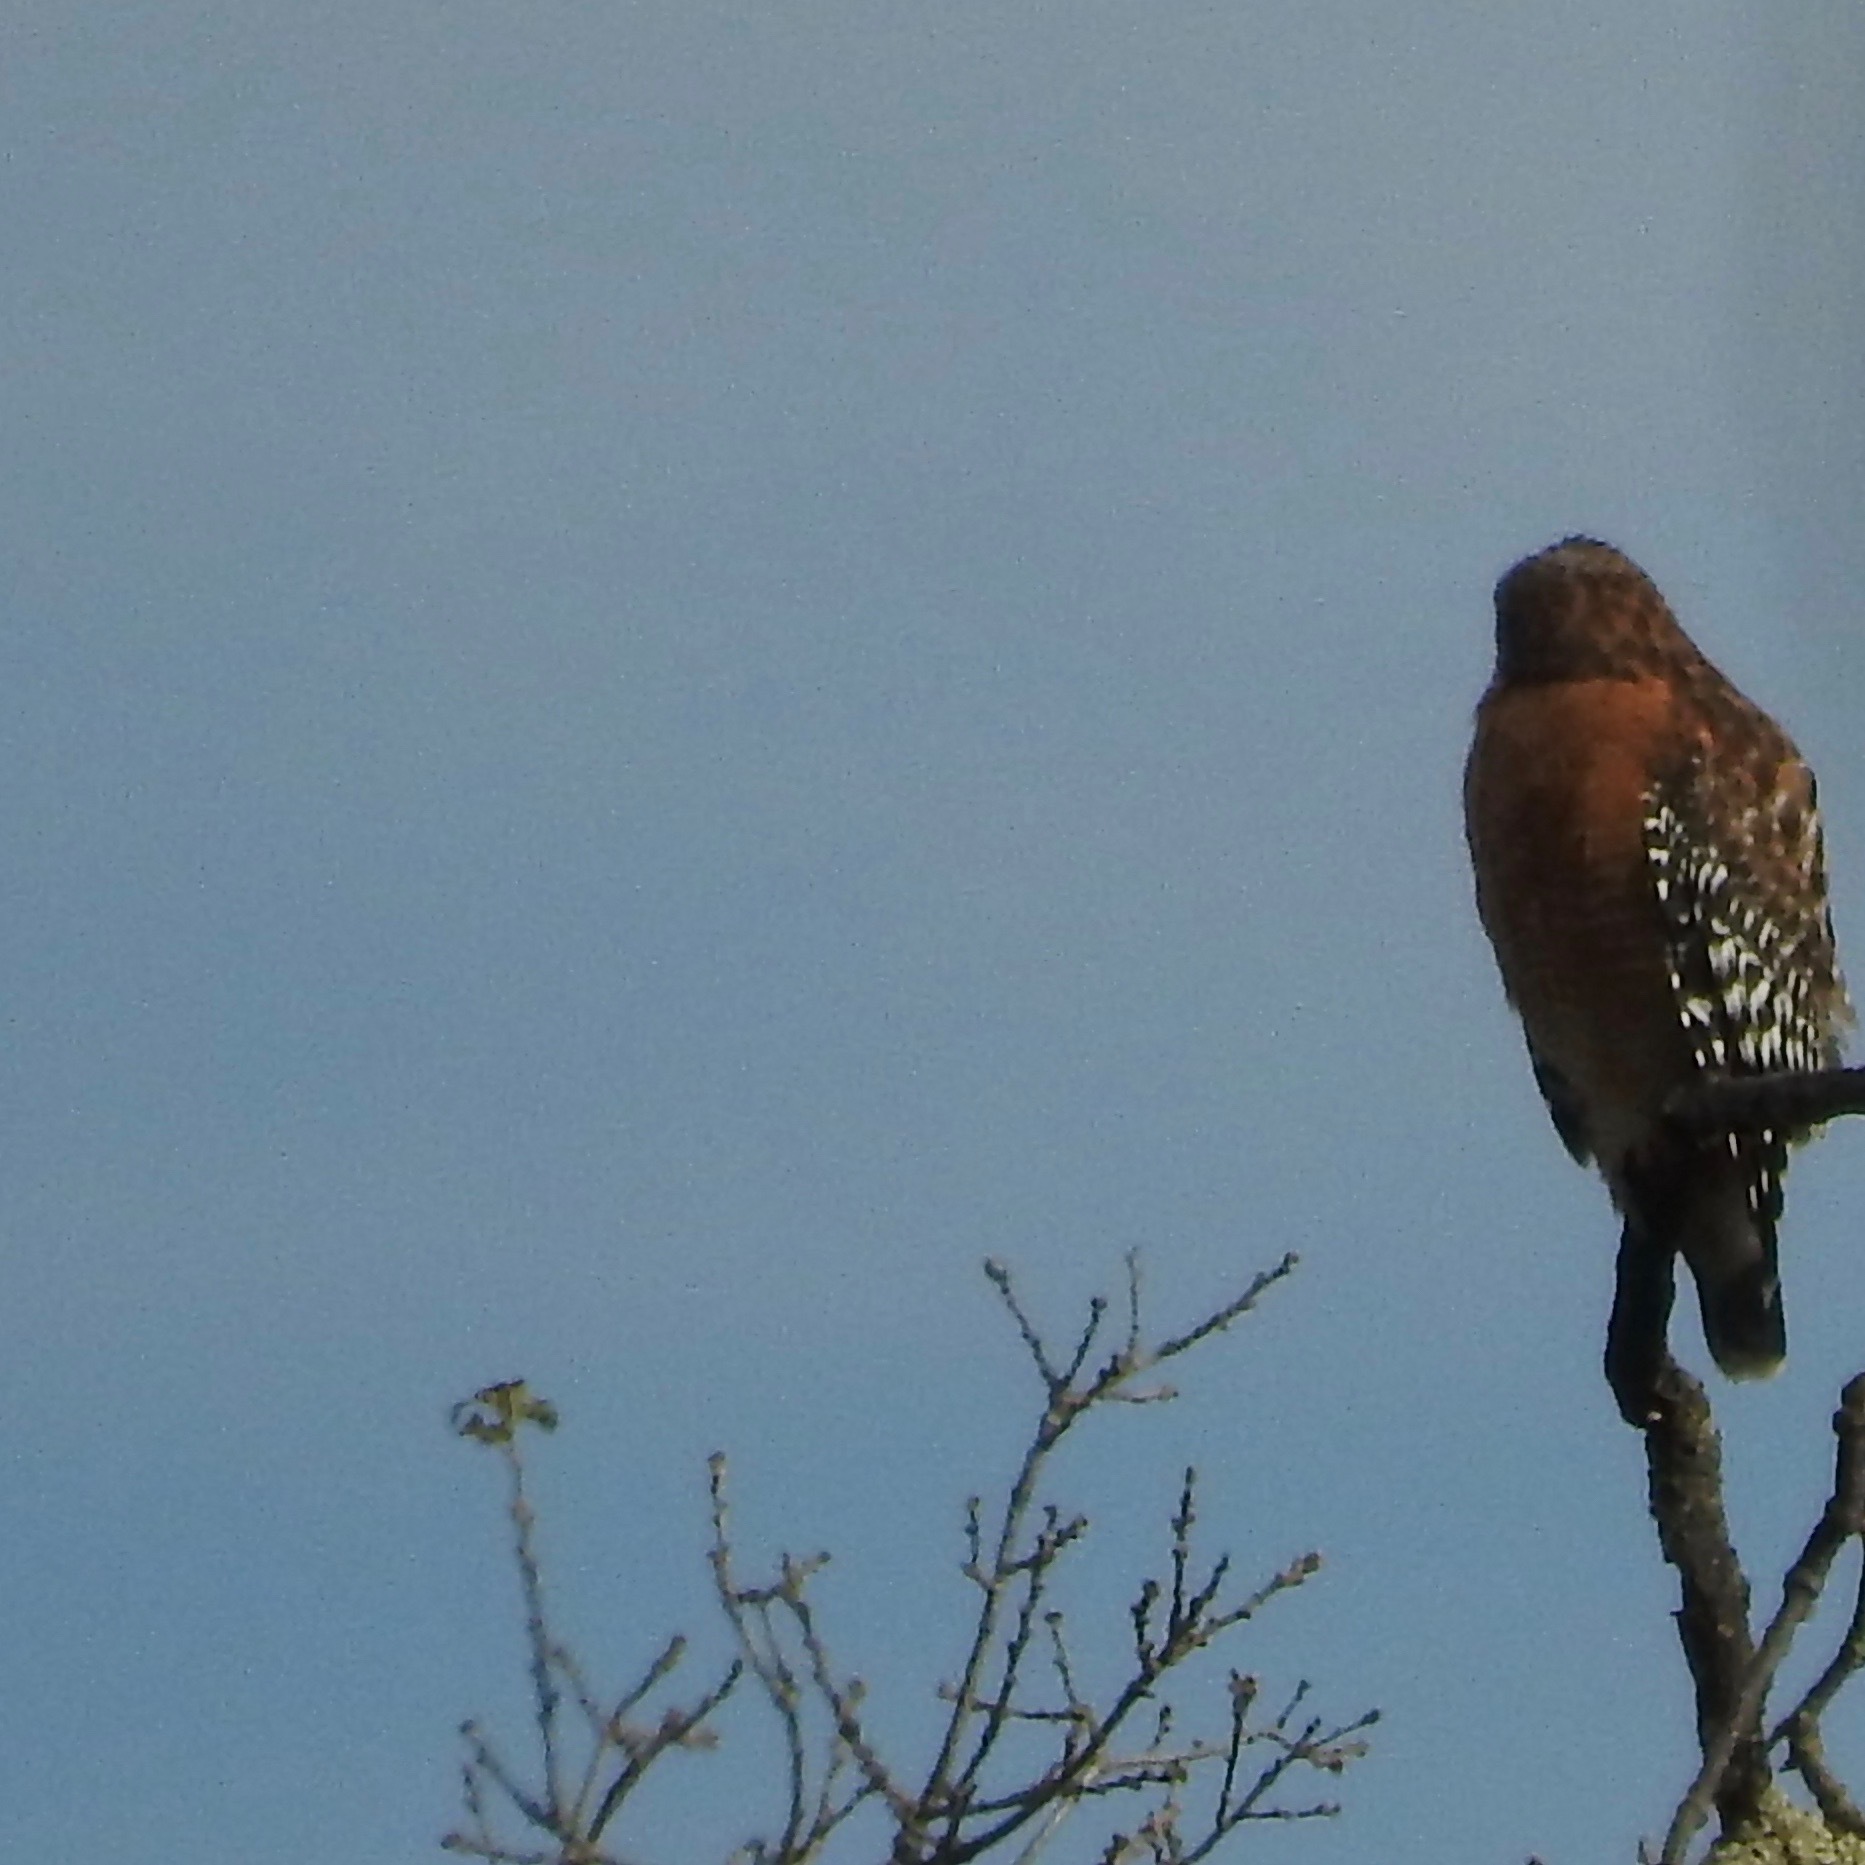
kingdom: Animalia
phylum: Chordata
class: Aves
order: Accipitriformes
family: Accipitridae
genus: Buteo
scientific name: Buteo lineatus
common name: Red-shouldered hawk
